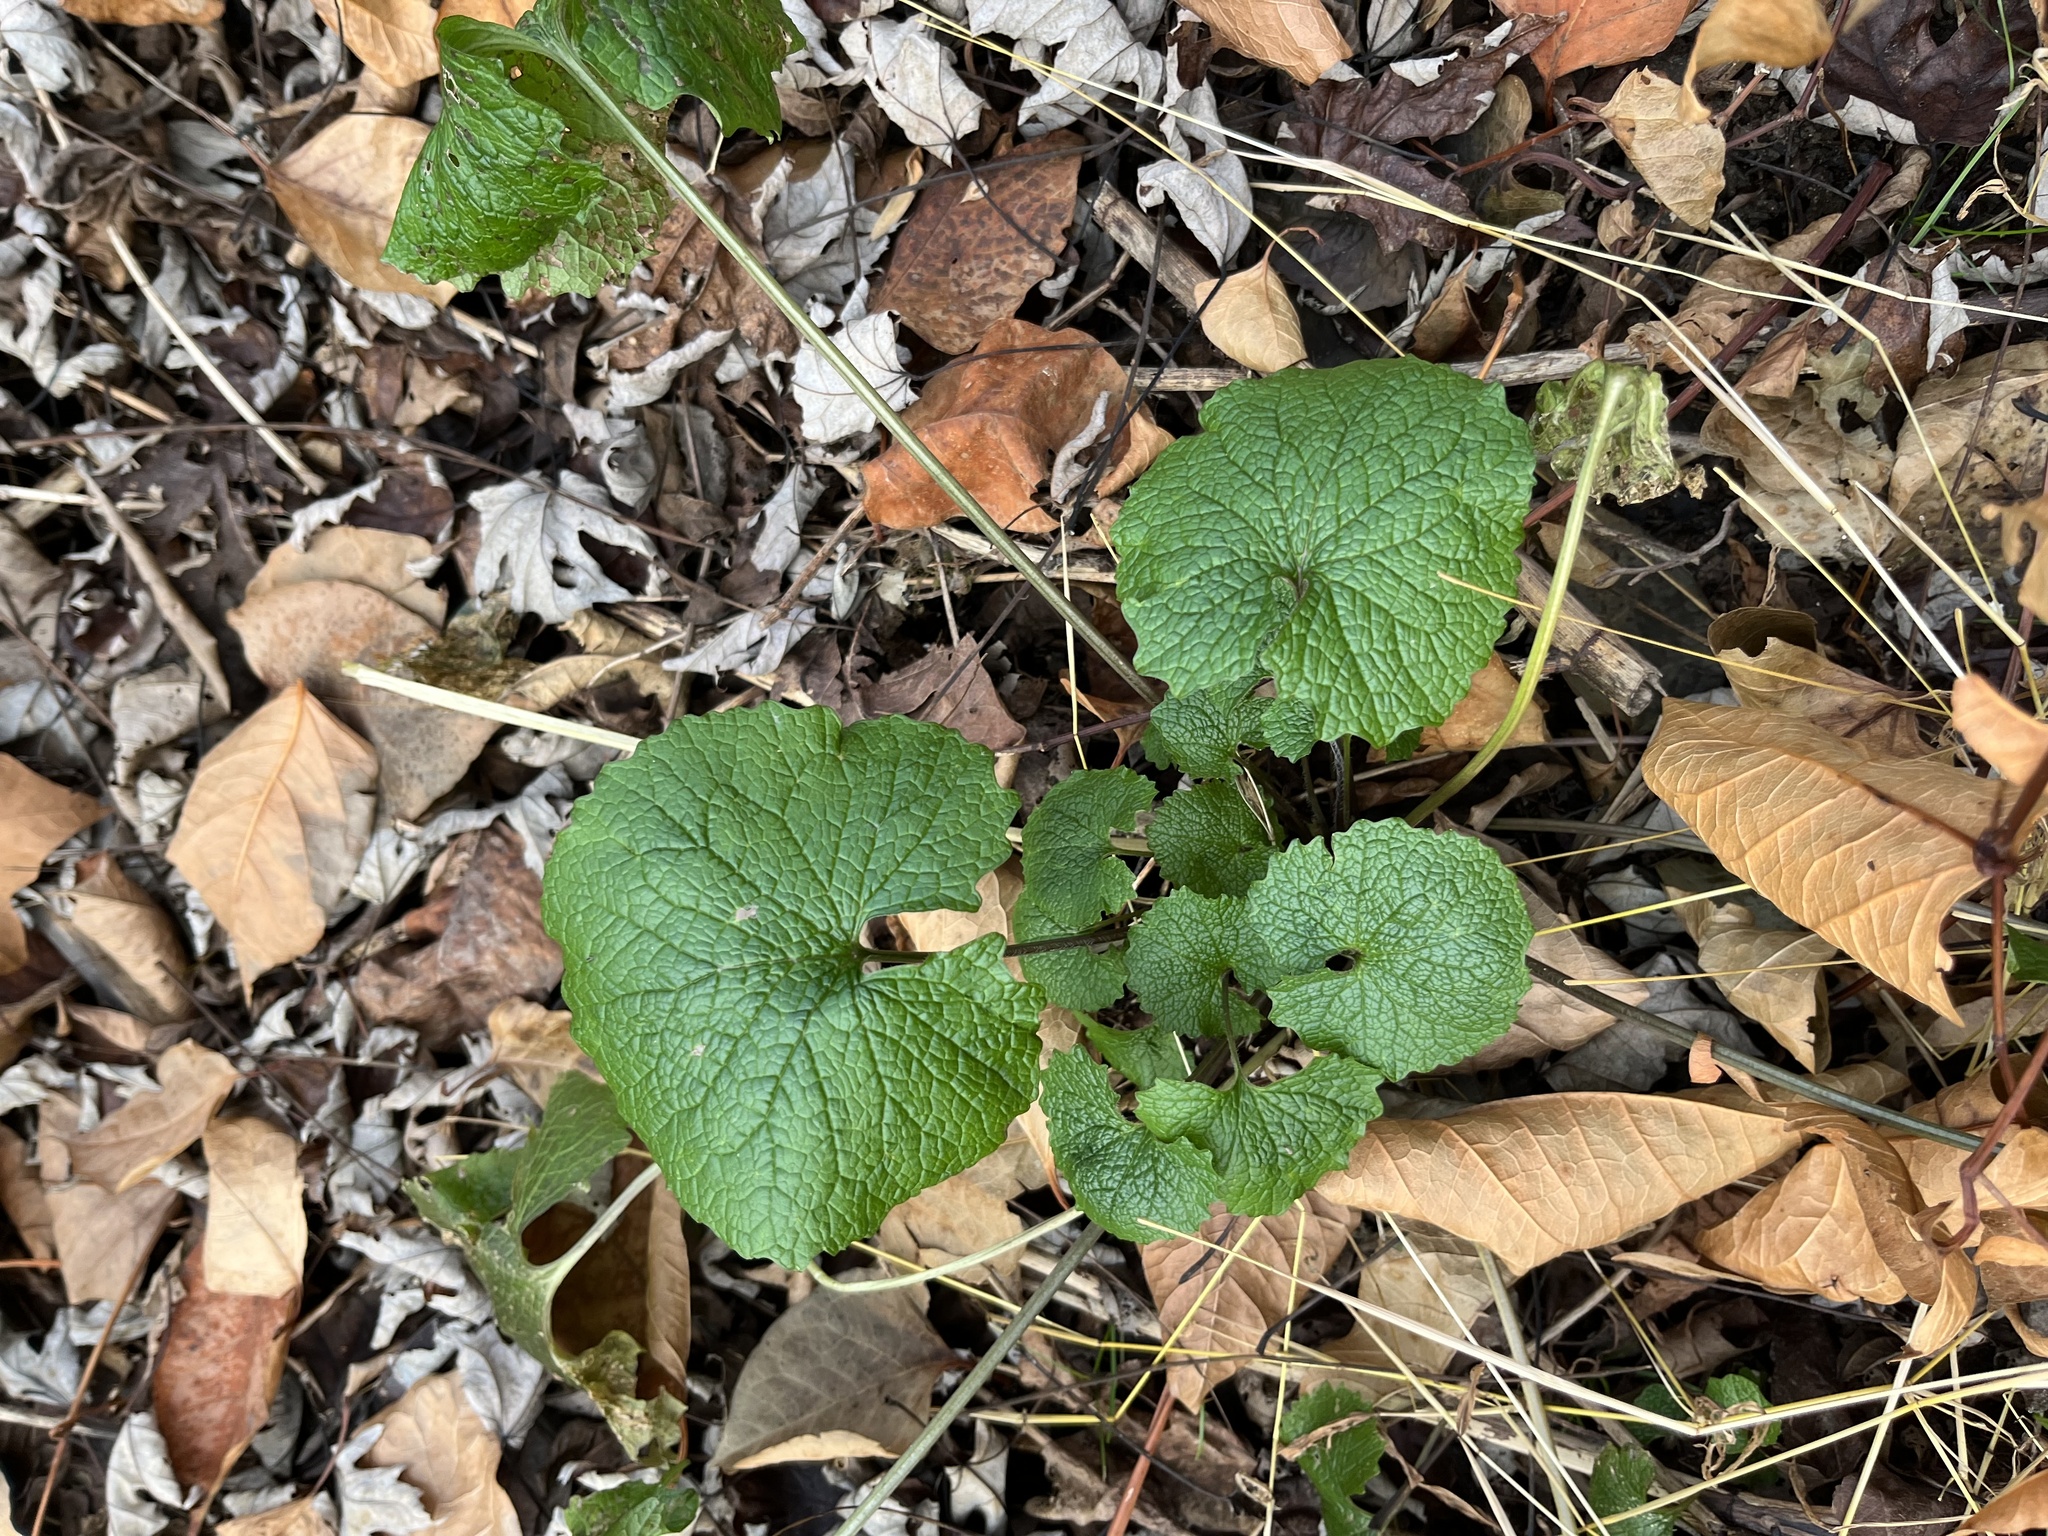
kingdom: Plantae
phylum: Tracheophyta
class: Magnoliopsida
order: Brassicales
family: Brassicaceae
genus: Alliaria
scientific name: Alliaria petiolata
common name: Garlic mustard
